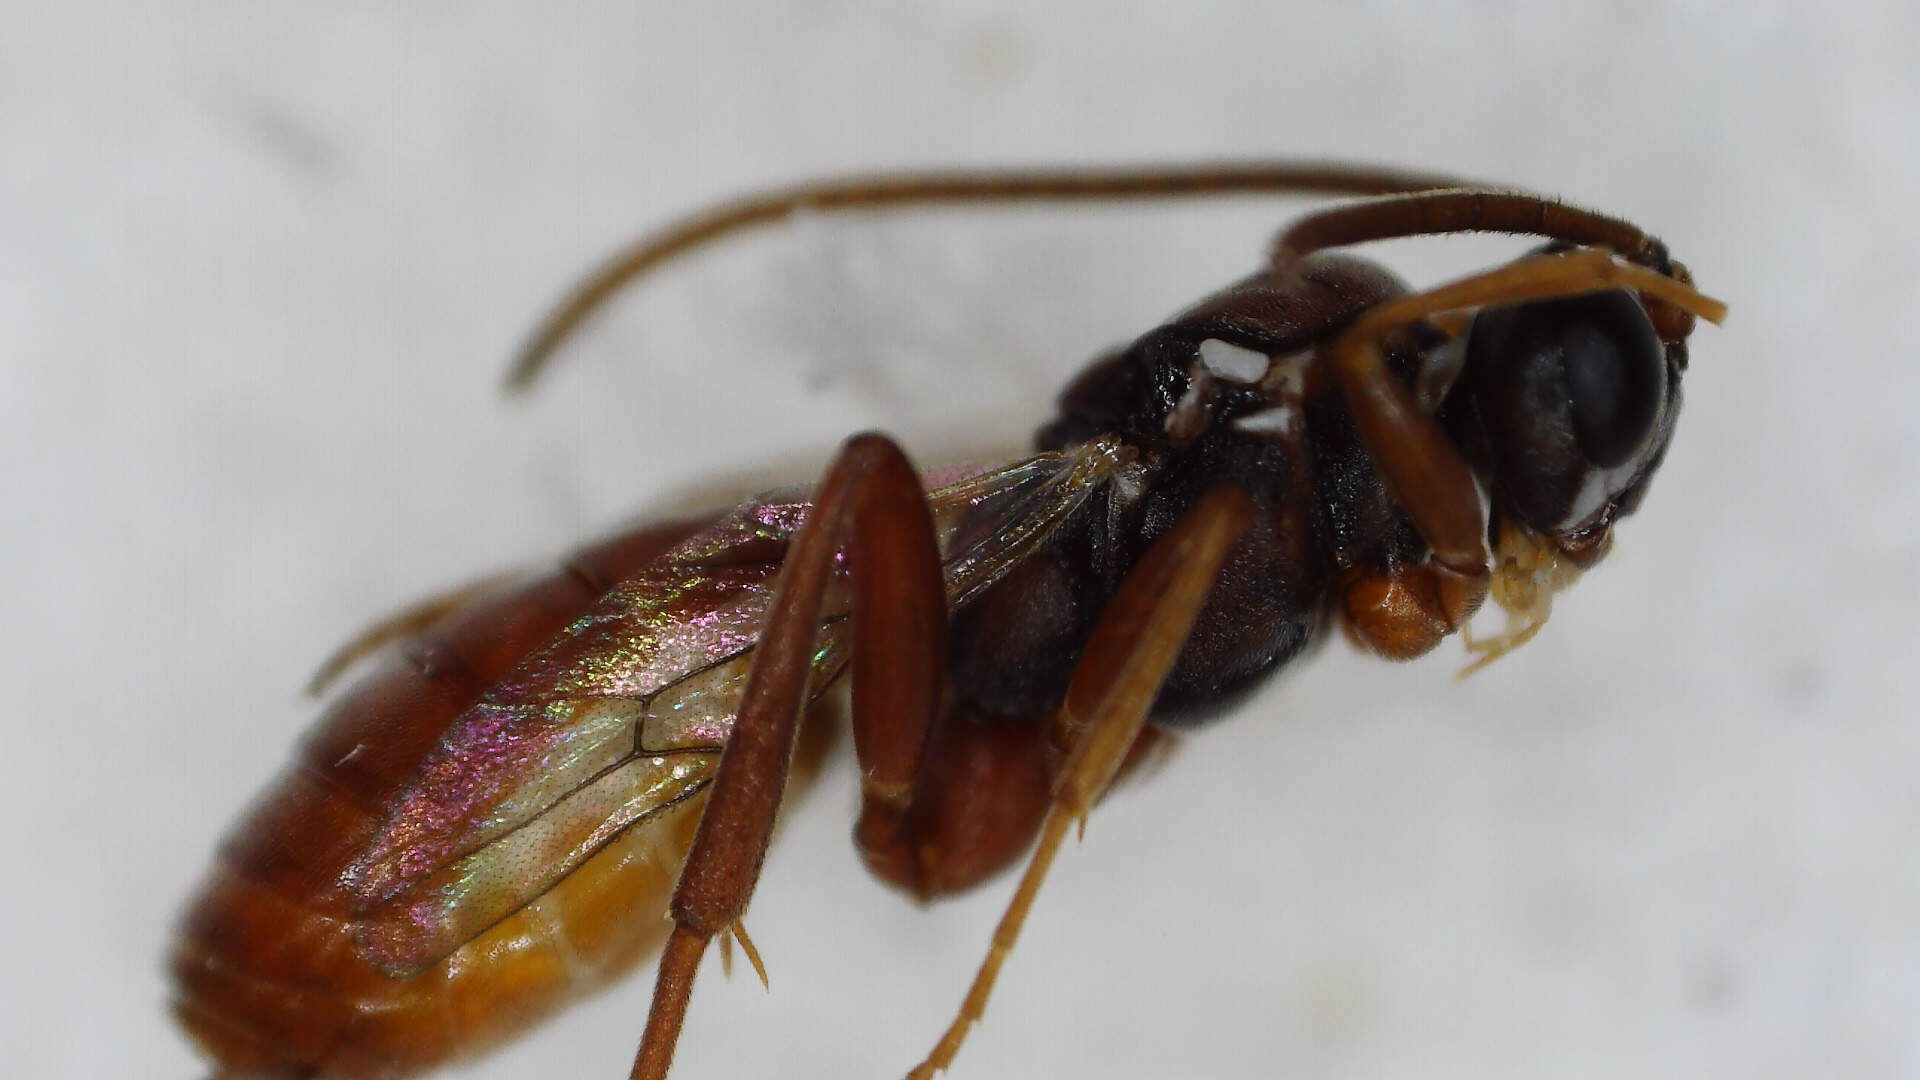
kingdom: Animalia
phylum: Arthropoda
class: Insecta
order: Hymenoptera
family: Ichneumonidae
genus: Sphecophaga
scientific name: Sphecophaga vesparum
